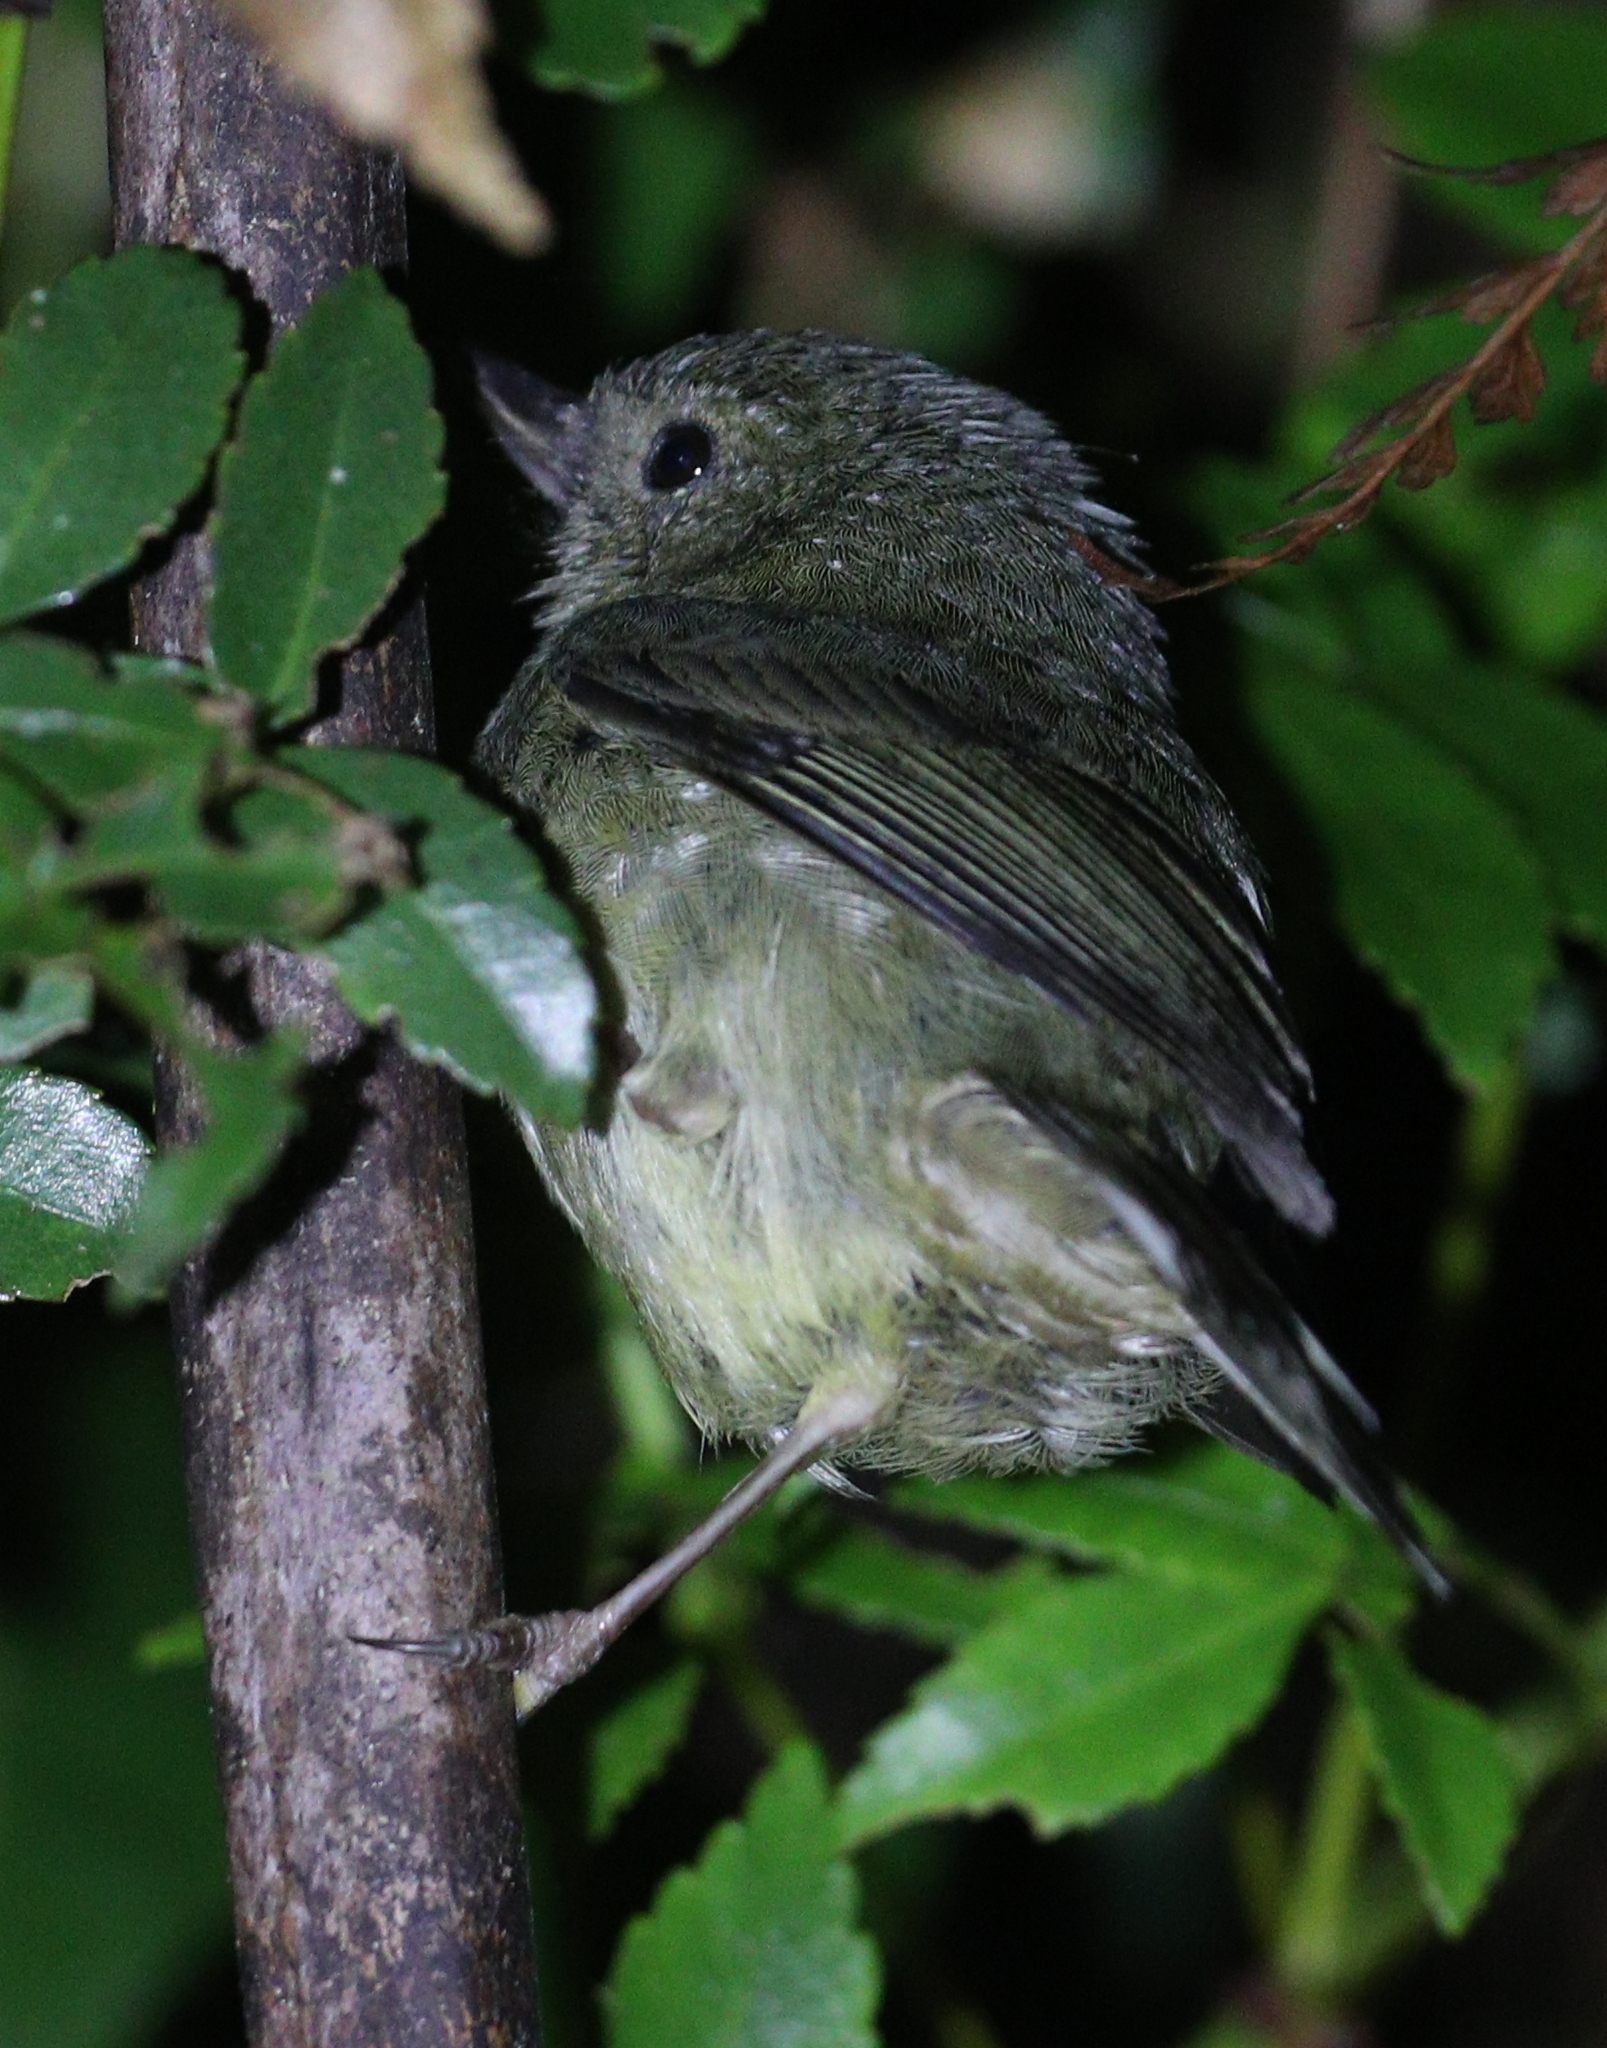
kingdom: Animalia
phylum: Chordata
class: Aves
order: Passeriformes
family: Thraupidae
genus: Diglossa
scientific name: Diglossa plumbea
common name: Slaty flowerpiercer
